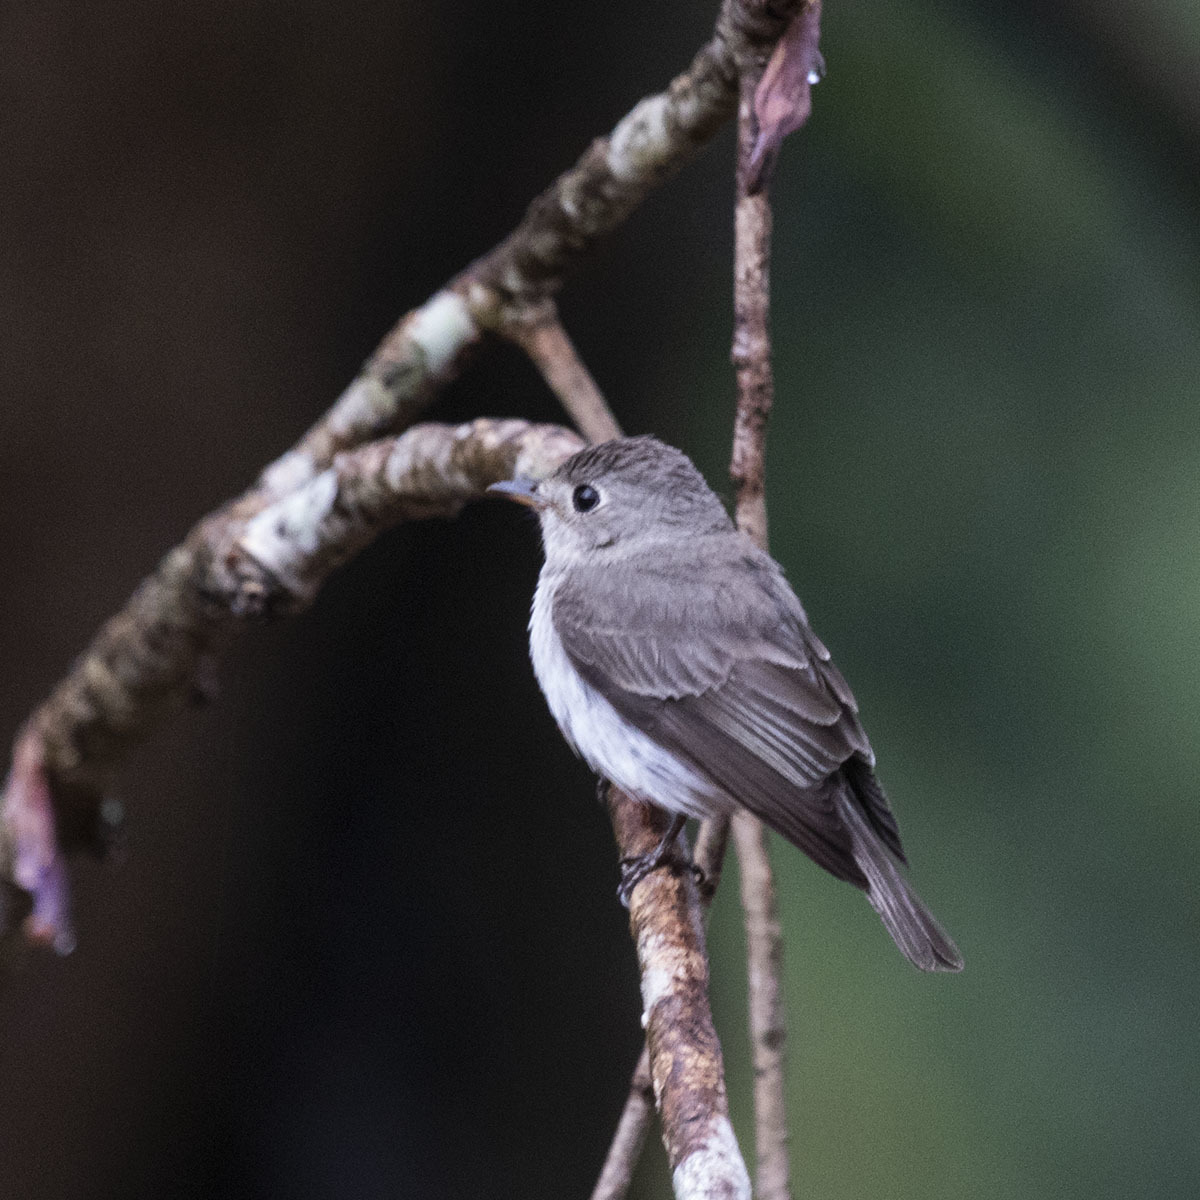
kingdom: Animalia
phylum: Chordata
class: Aves
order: Passeriformes
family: Muscicapidae
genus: Muscicapa
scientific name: Muscicapa latirostris
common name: Asian brown flycatcher
